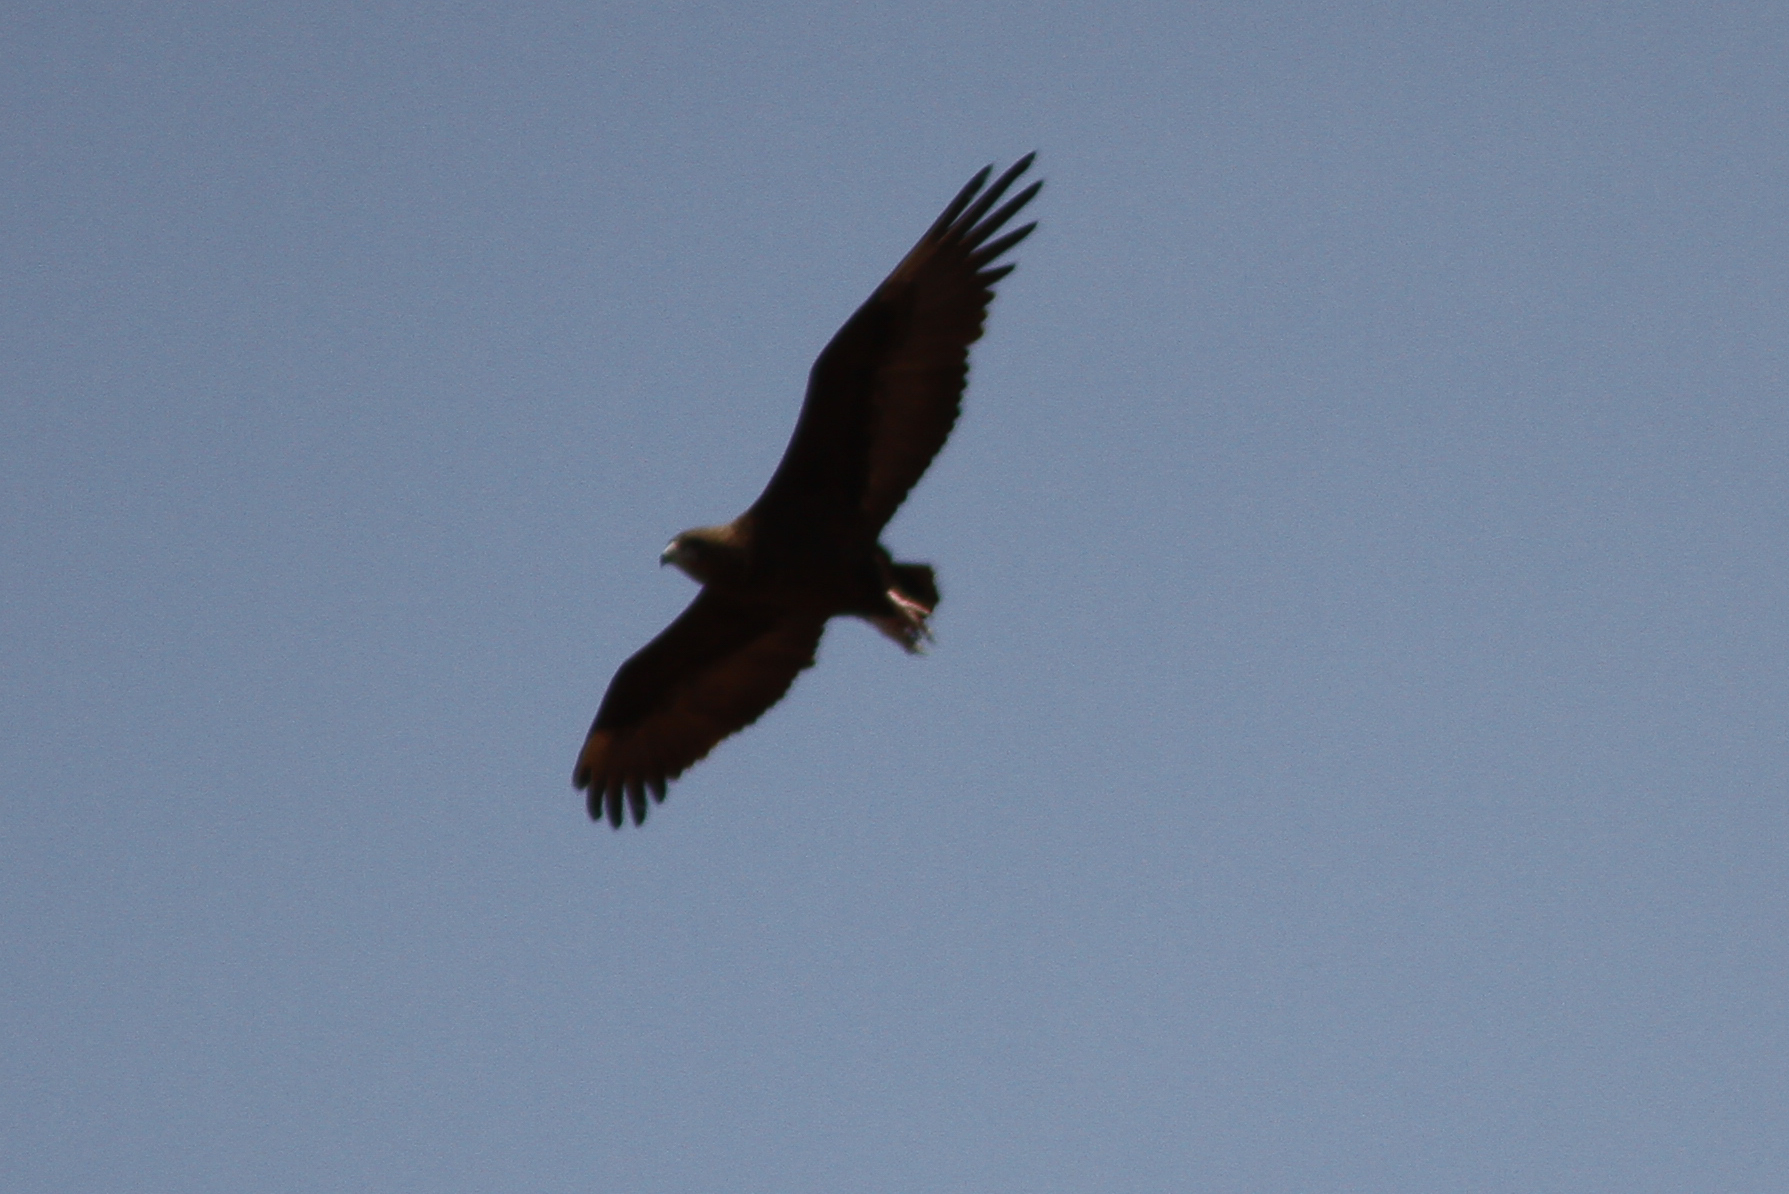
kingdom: Animalia
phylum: Chordata
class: Aves
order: Accipitriformes
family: Accipitridae
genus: Terathopius
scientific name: Terathopius ecaudatus
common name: Bateleur
